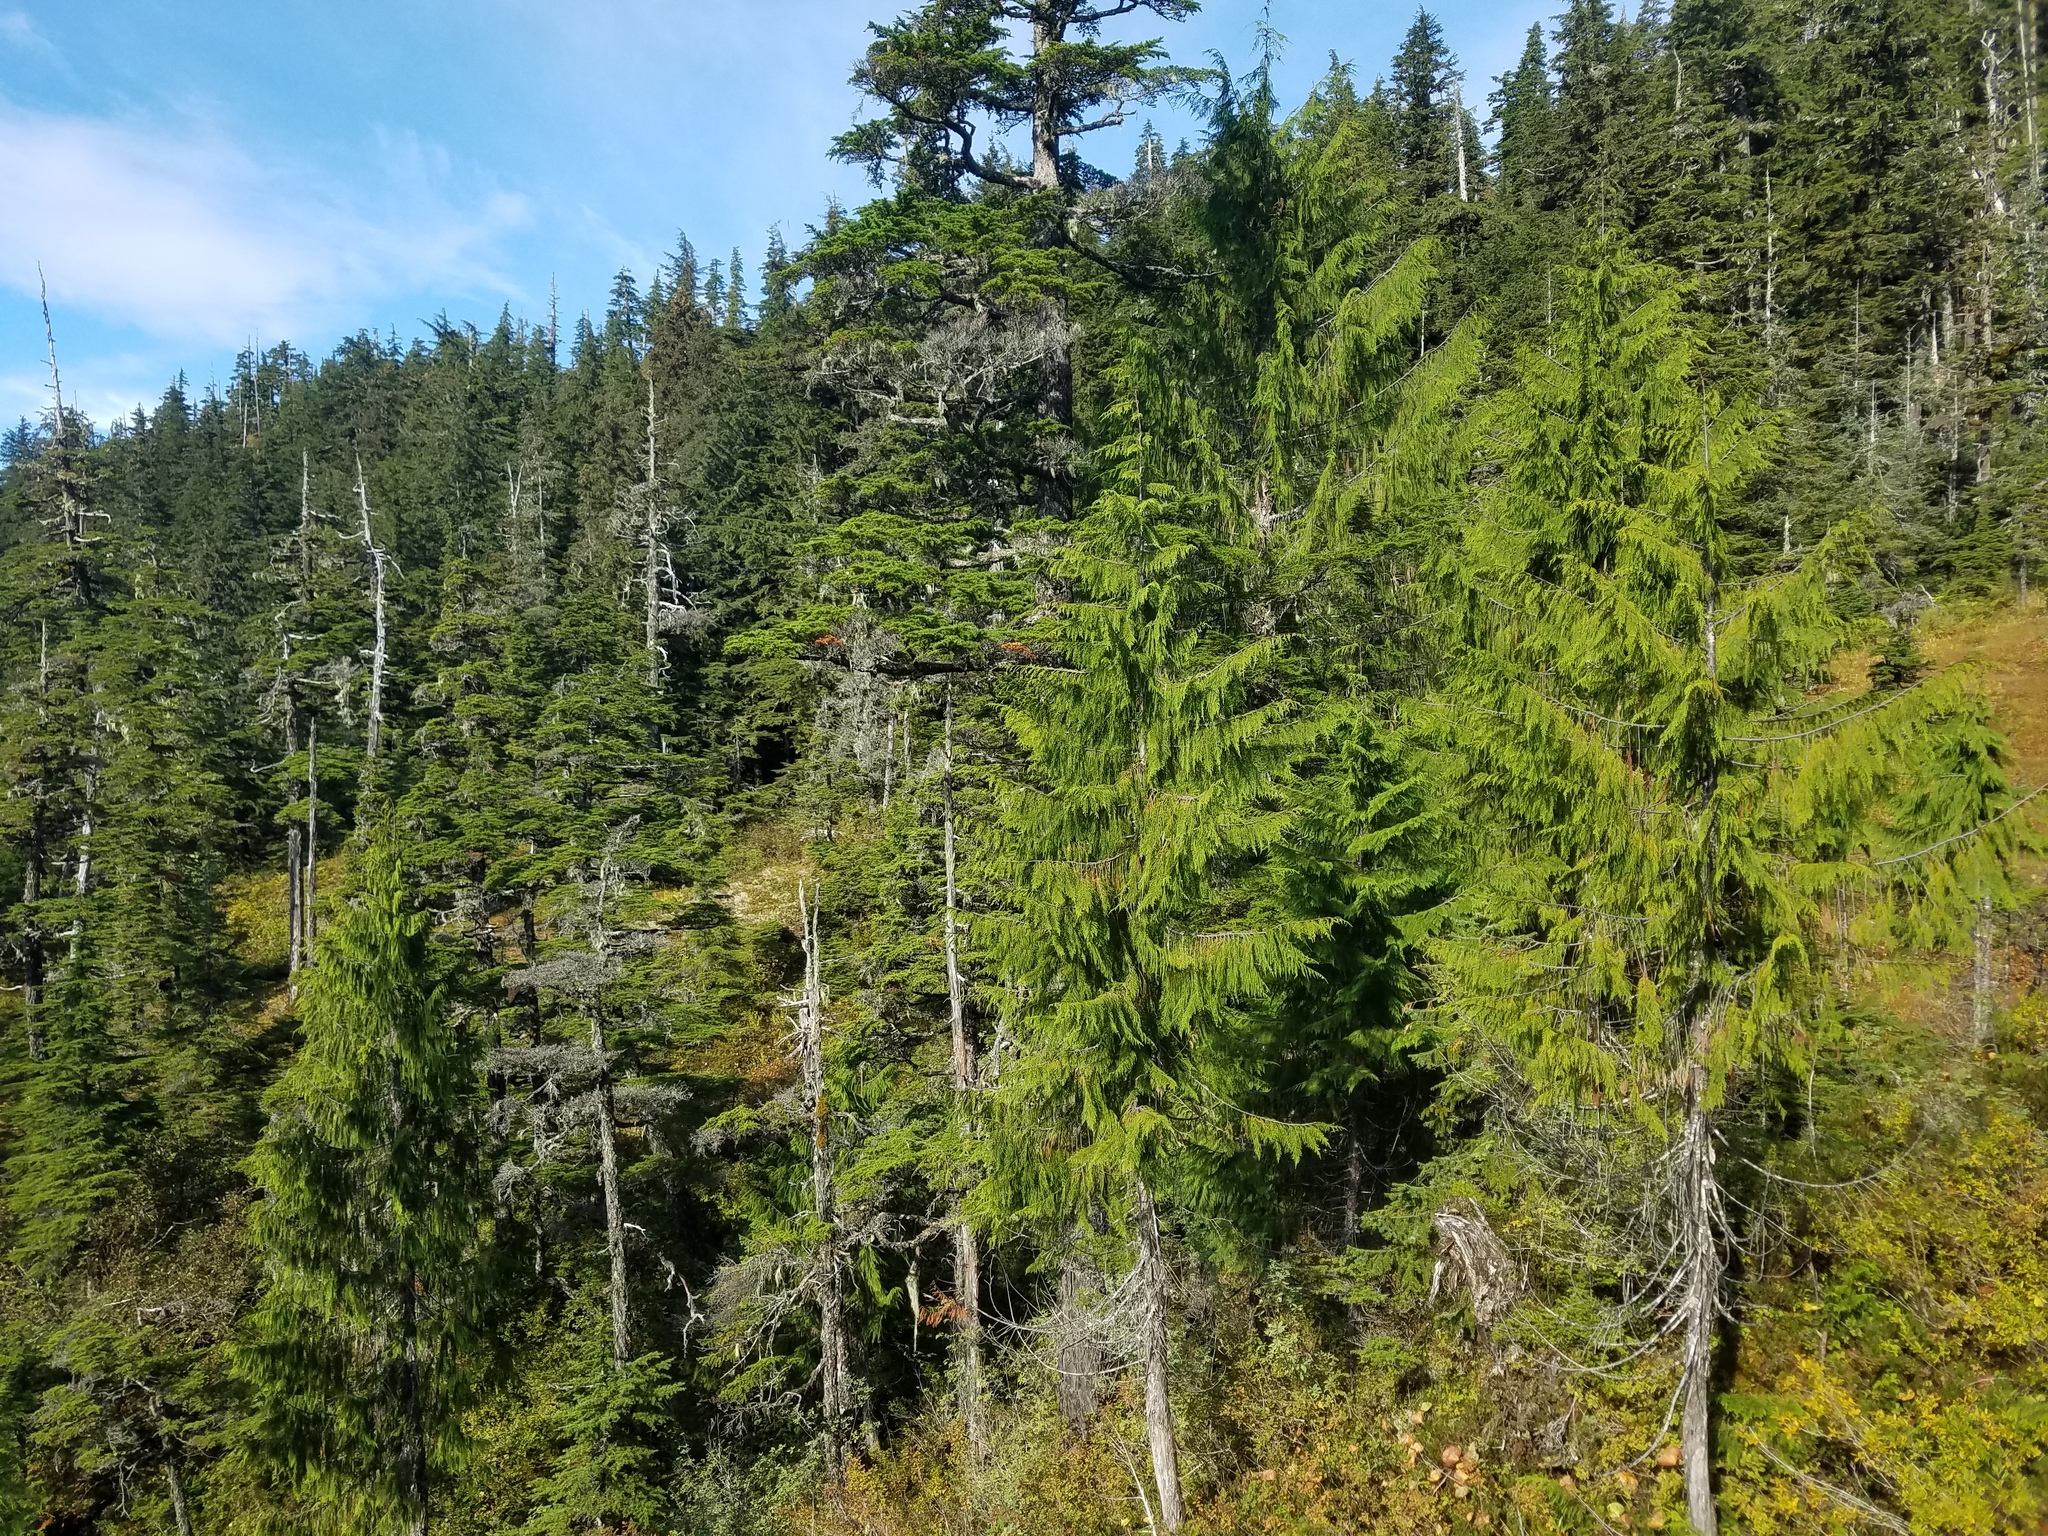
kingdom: Plantae
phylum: Tracheophyta
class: Pinopsida
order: Pinales
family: Cupressaceae
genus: Xanthocyparis
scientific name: Xanthocyparis nootkatensis
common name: Nootka cypress
